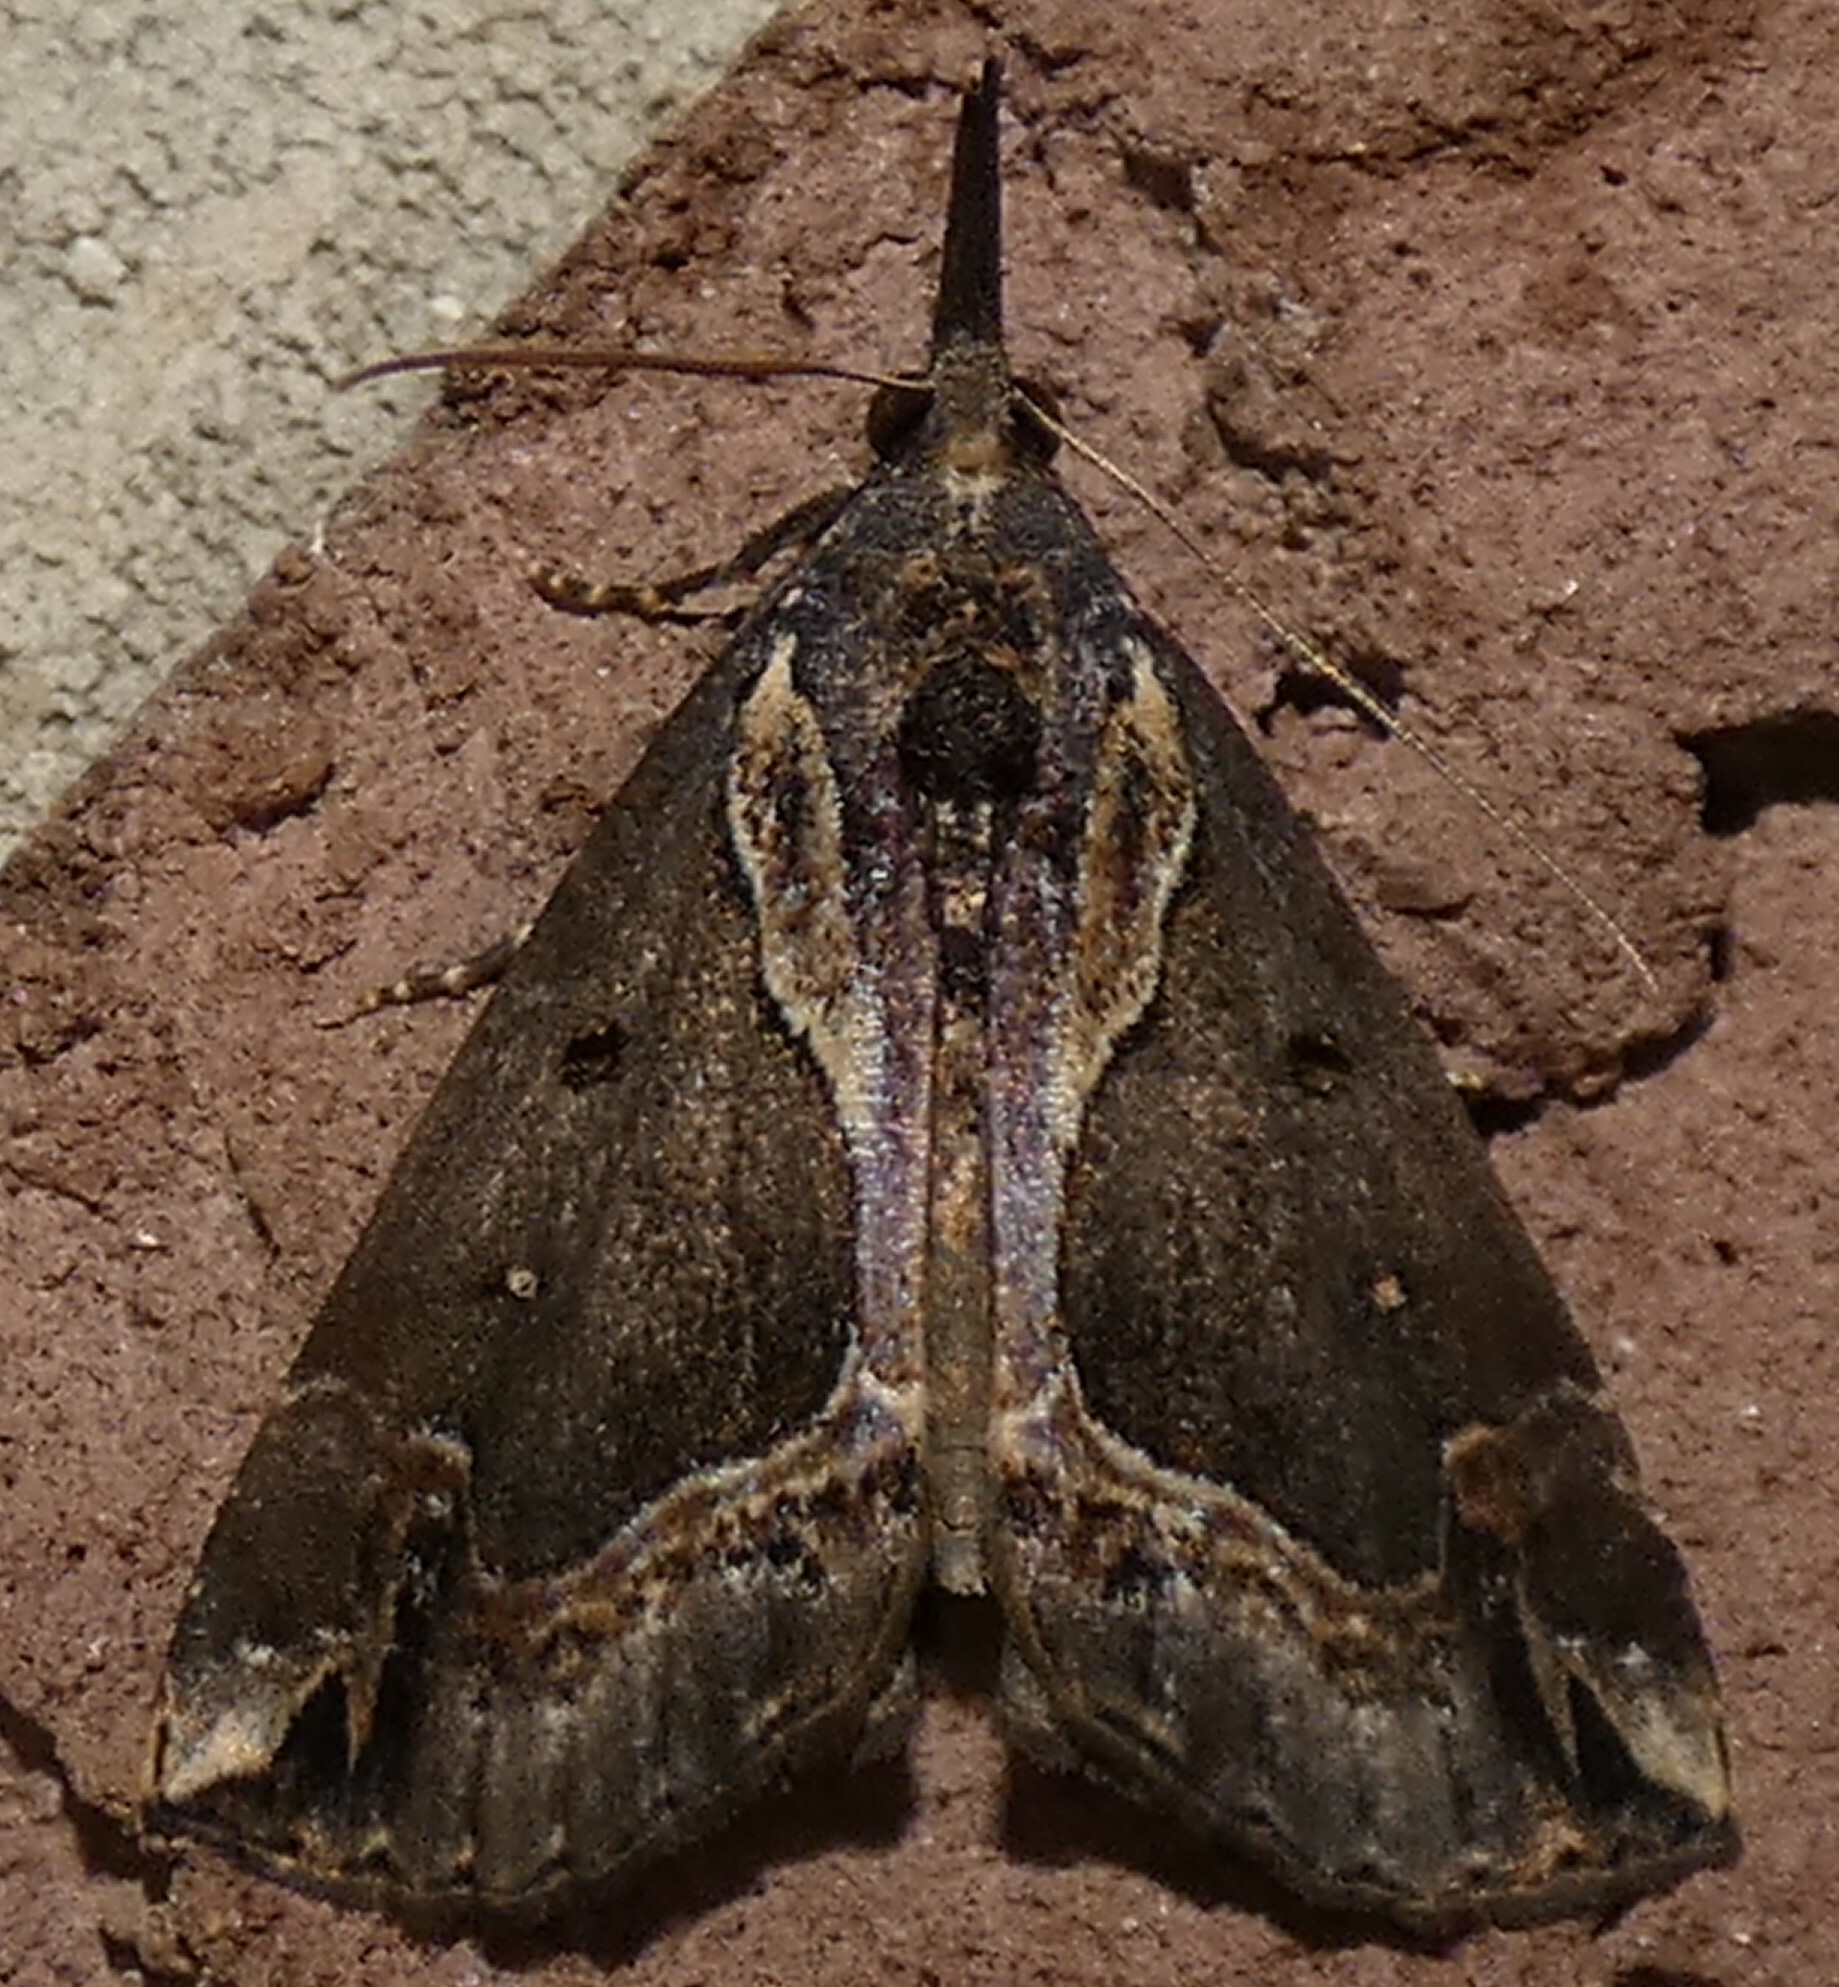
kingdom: Animalia
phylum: Arthropoda
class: Insecta
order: Lepidoptera
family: Erebidae
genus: Hypena
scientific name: Hypena ramstadtii
